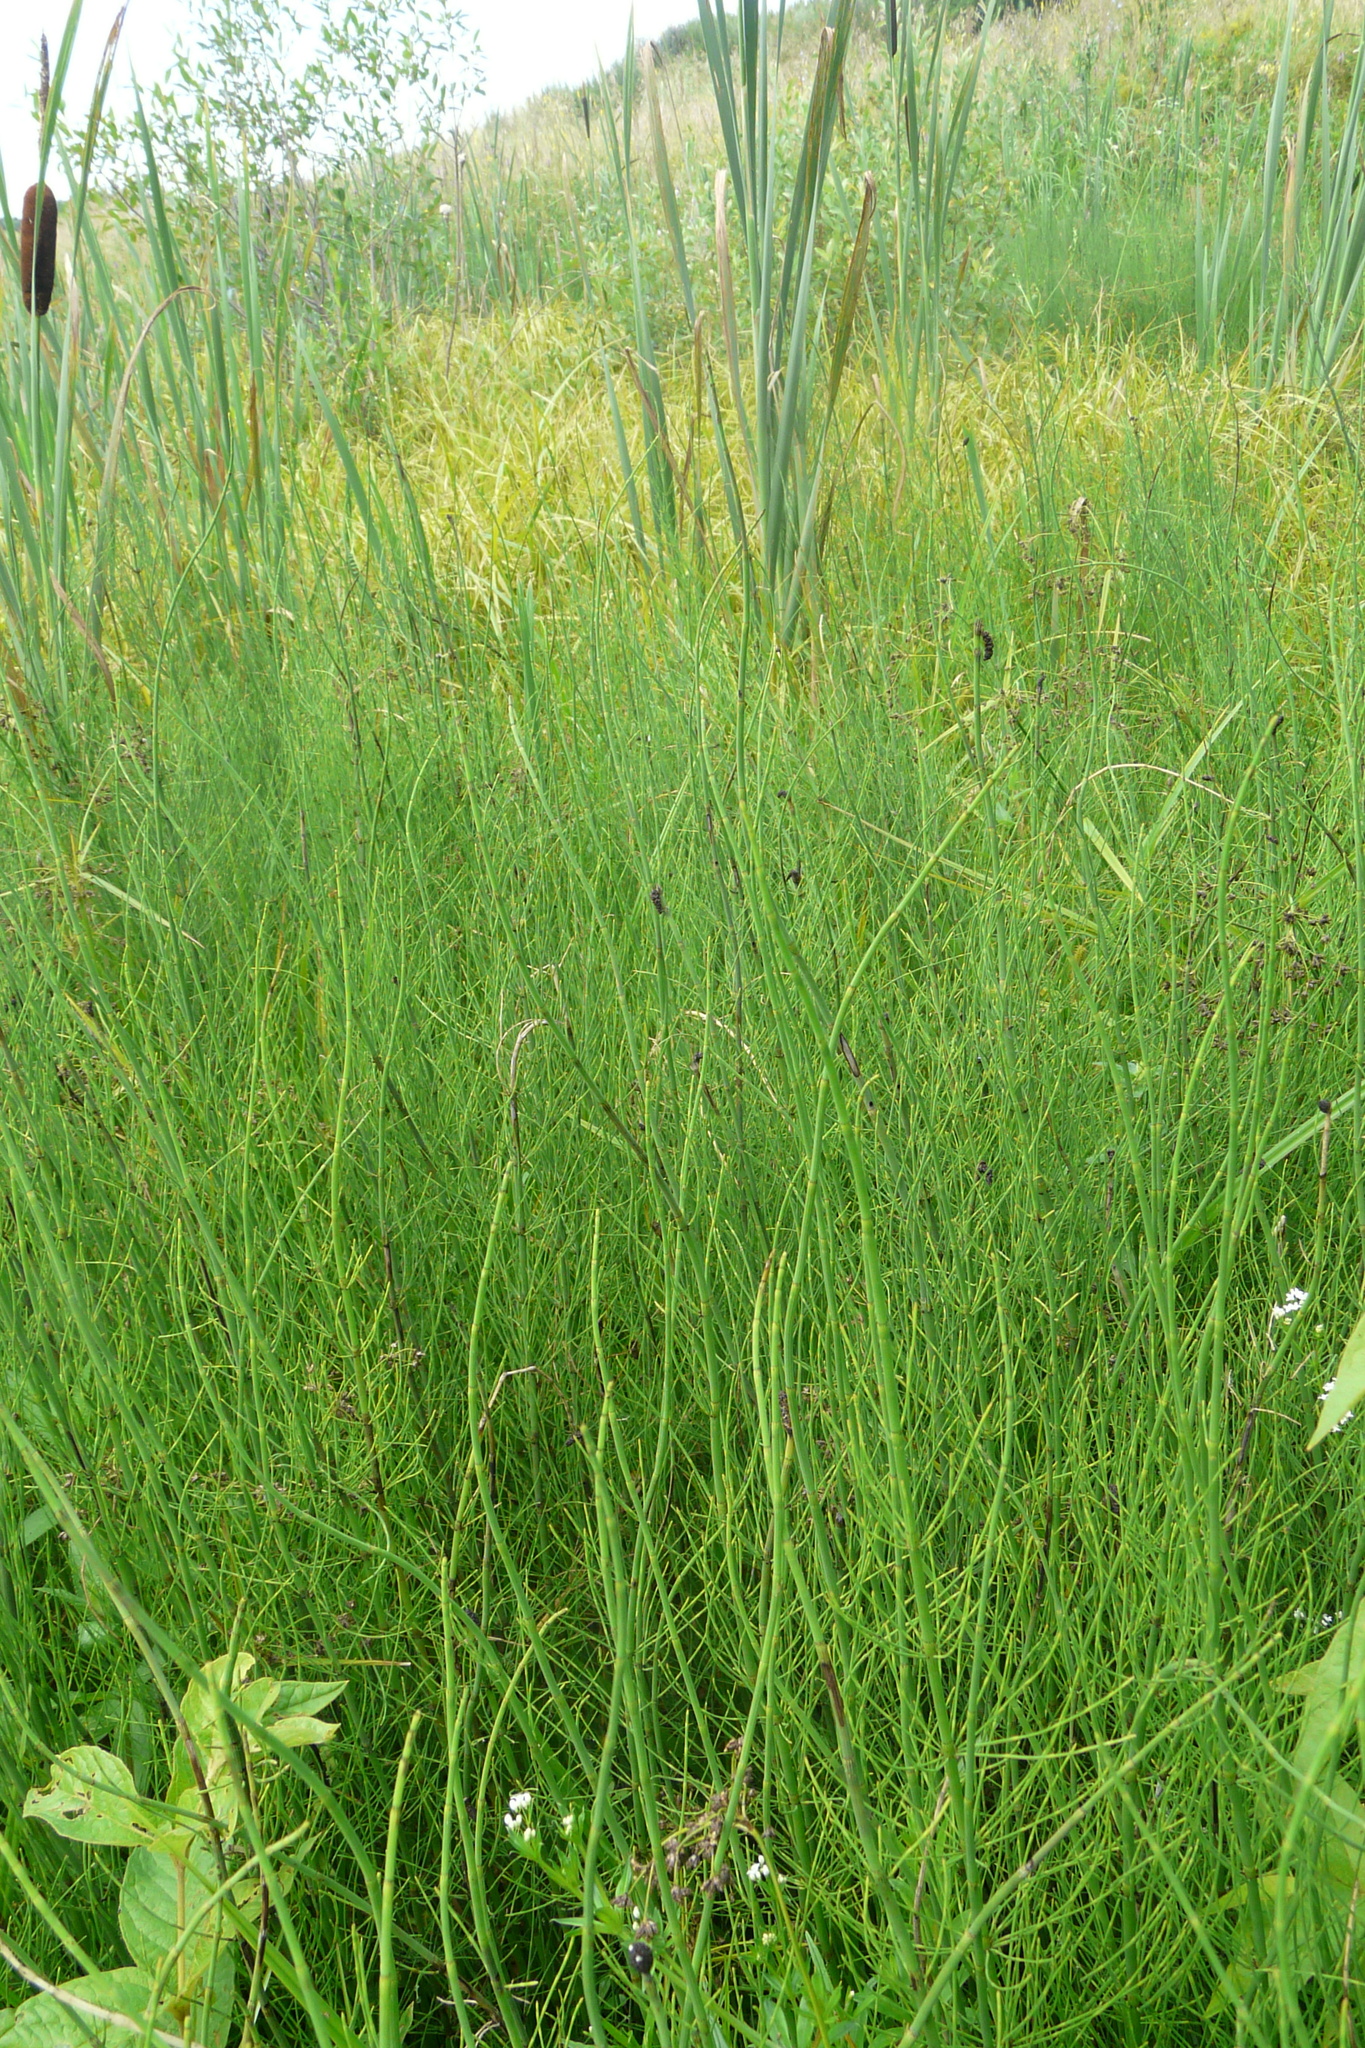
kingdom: Plantae
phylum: Tracheophyta
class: Polypodiopsida
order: Equisetales
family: Equisetaceae
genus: Equisetum
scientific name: Equisetum fluviatile
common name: Water horsetail
